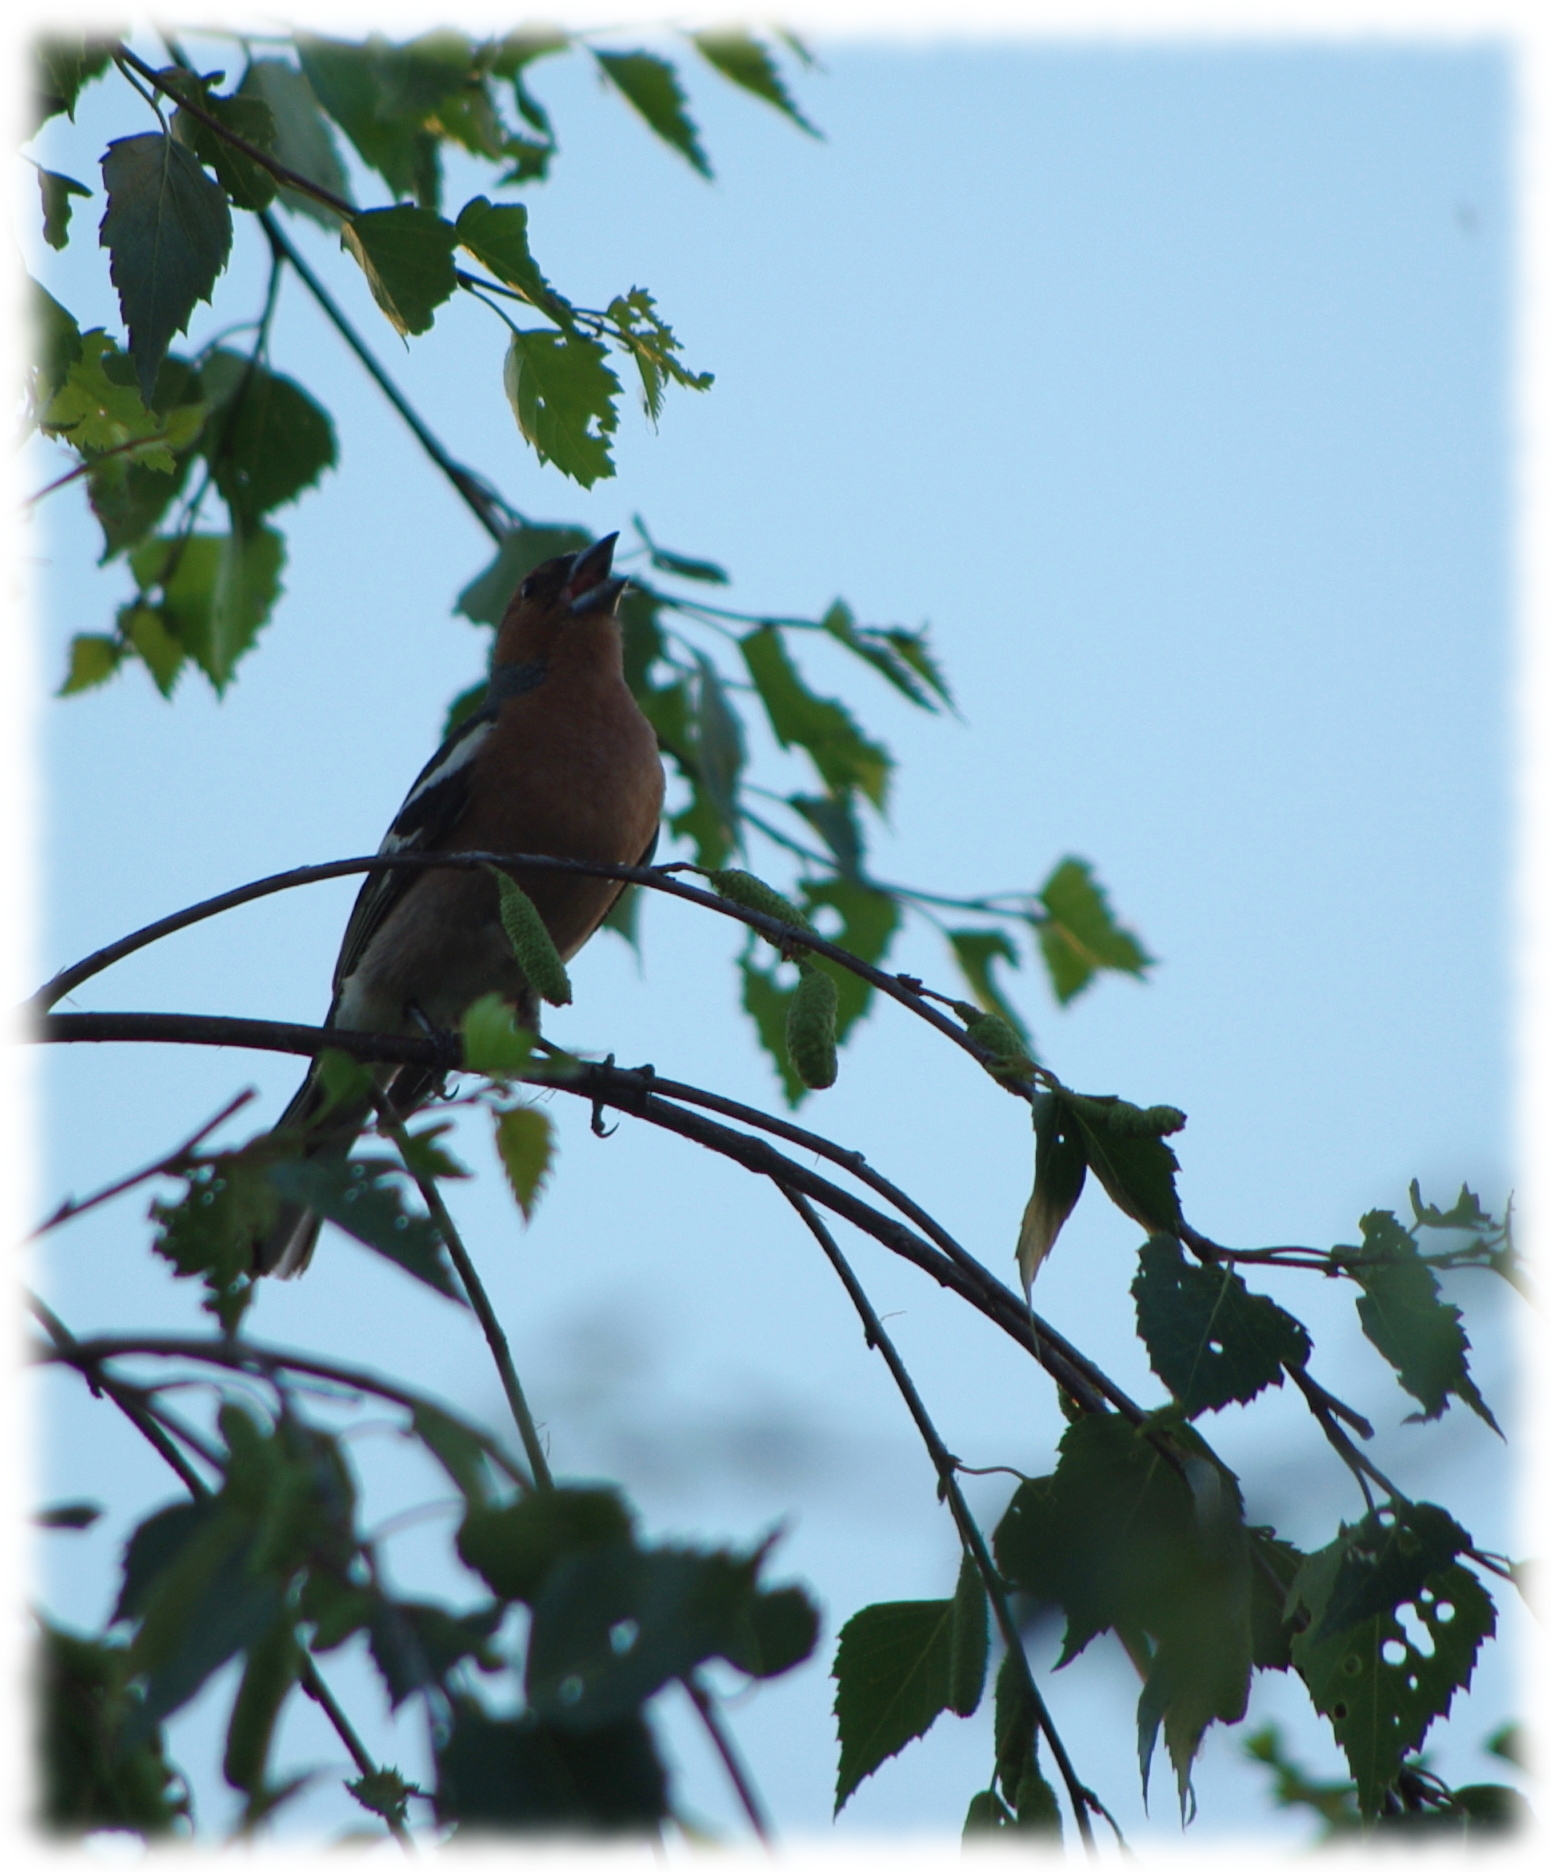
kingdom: Animalia
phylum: Chordata
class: Aves
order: Passeriformes
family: Fringillidae
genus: Fringilla
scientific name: Fringilla coelebs
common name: Common chaffinch
